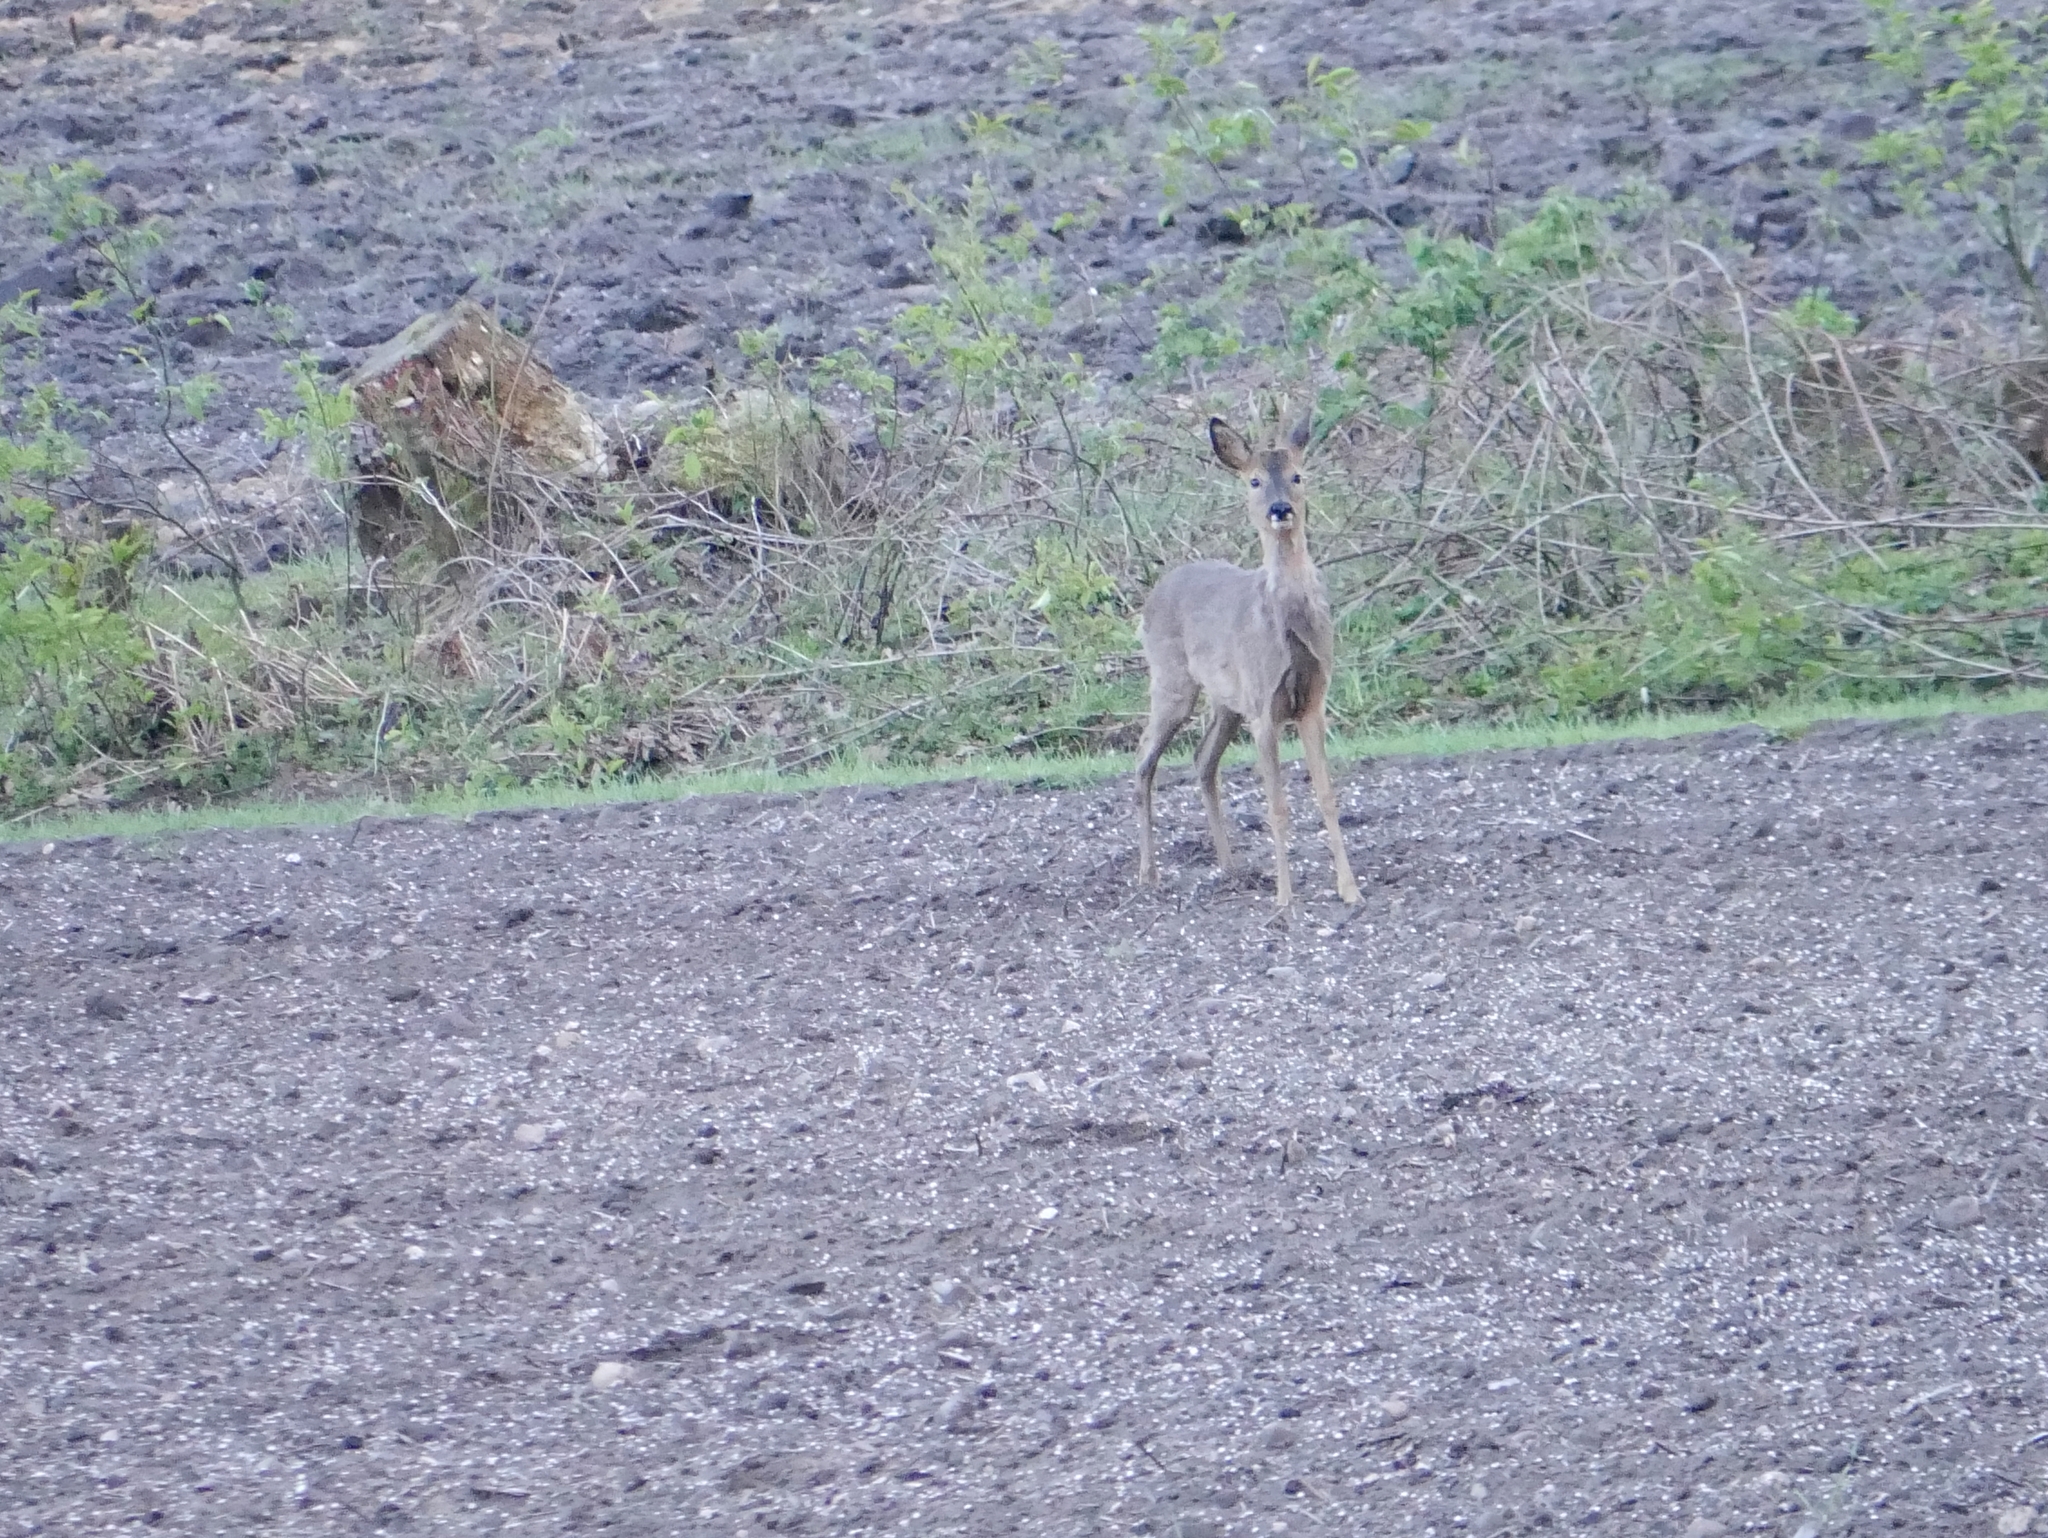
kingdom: Animalia
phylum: Chordata
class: Mammalia
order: Artiodactyla
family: Cervidae
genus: Capreolus
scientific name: Capreolus capreolus
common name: Western roe deer
